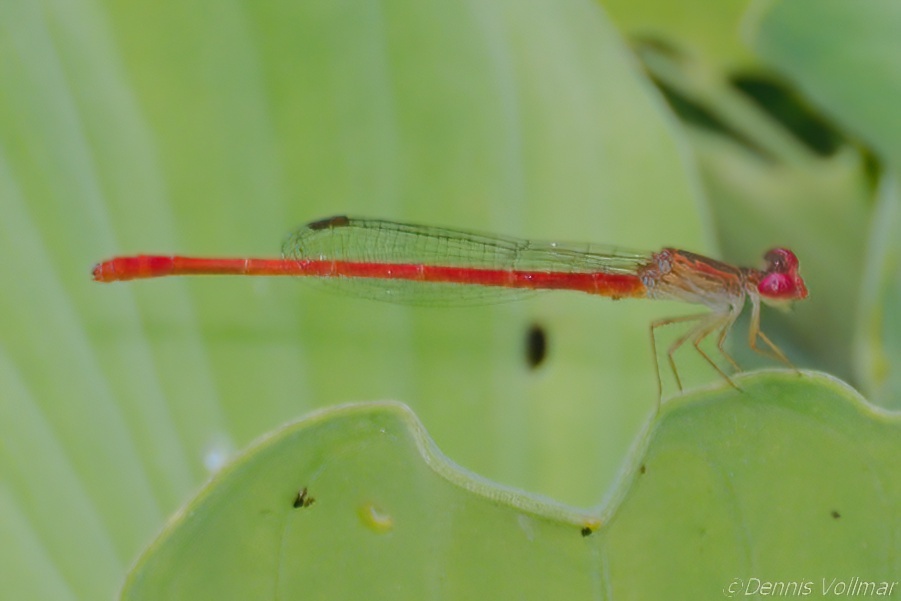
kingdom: Animalia
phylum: Arthropoda
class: Insecta
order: Odonata
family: Coenagrionidae
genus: Telebasis
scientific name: Telebasis byersi
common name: Duckweed firetail
